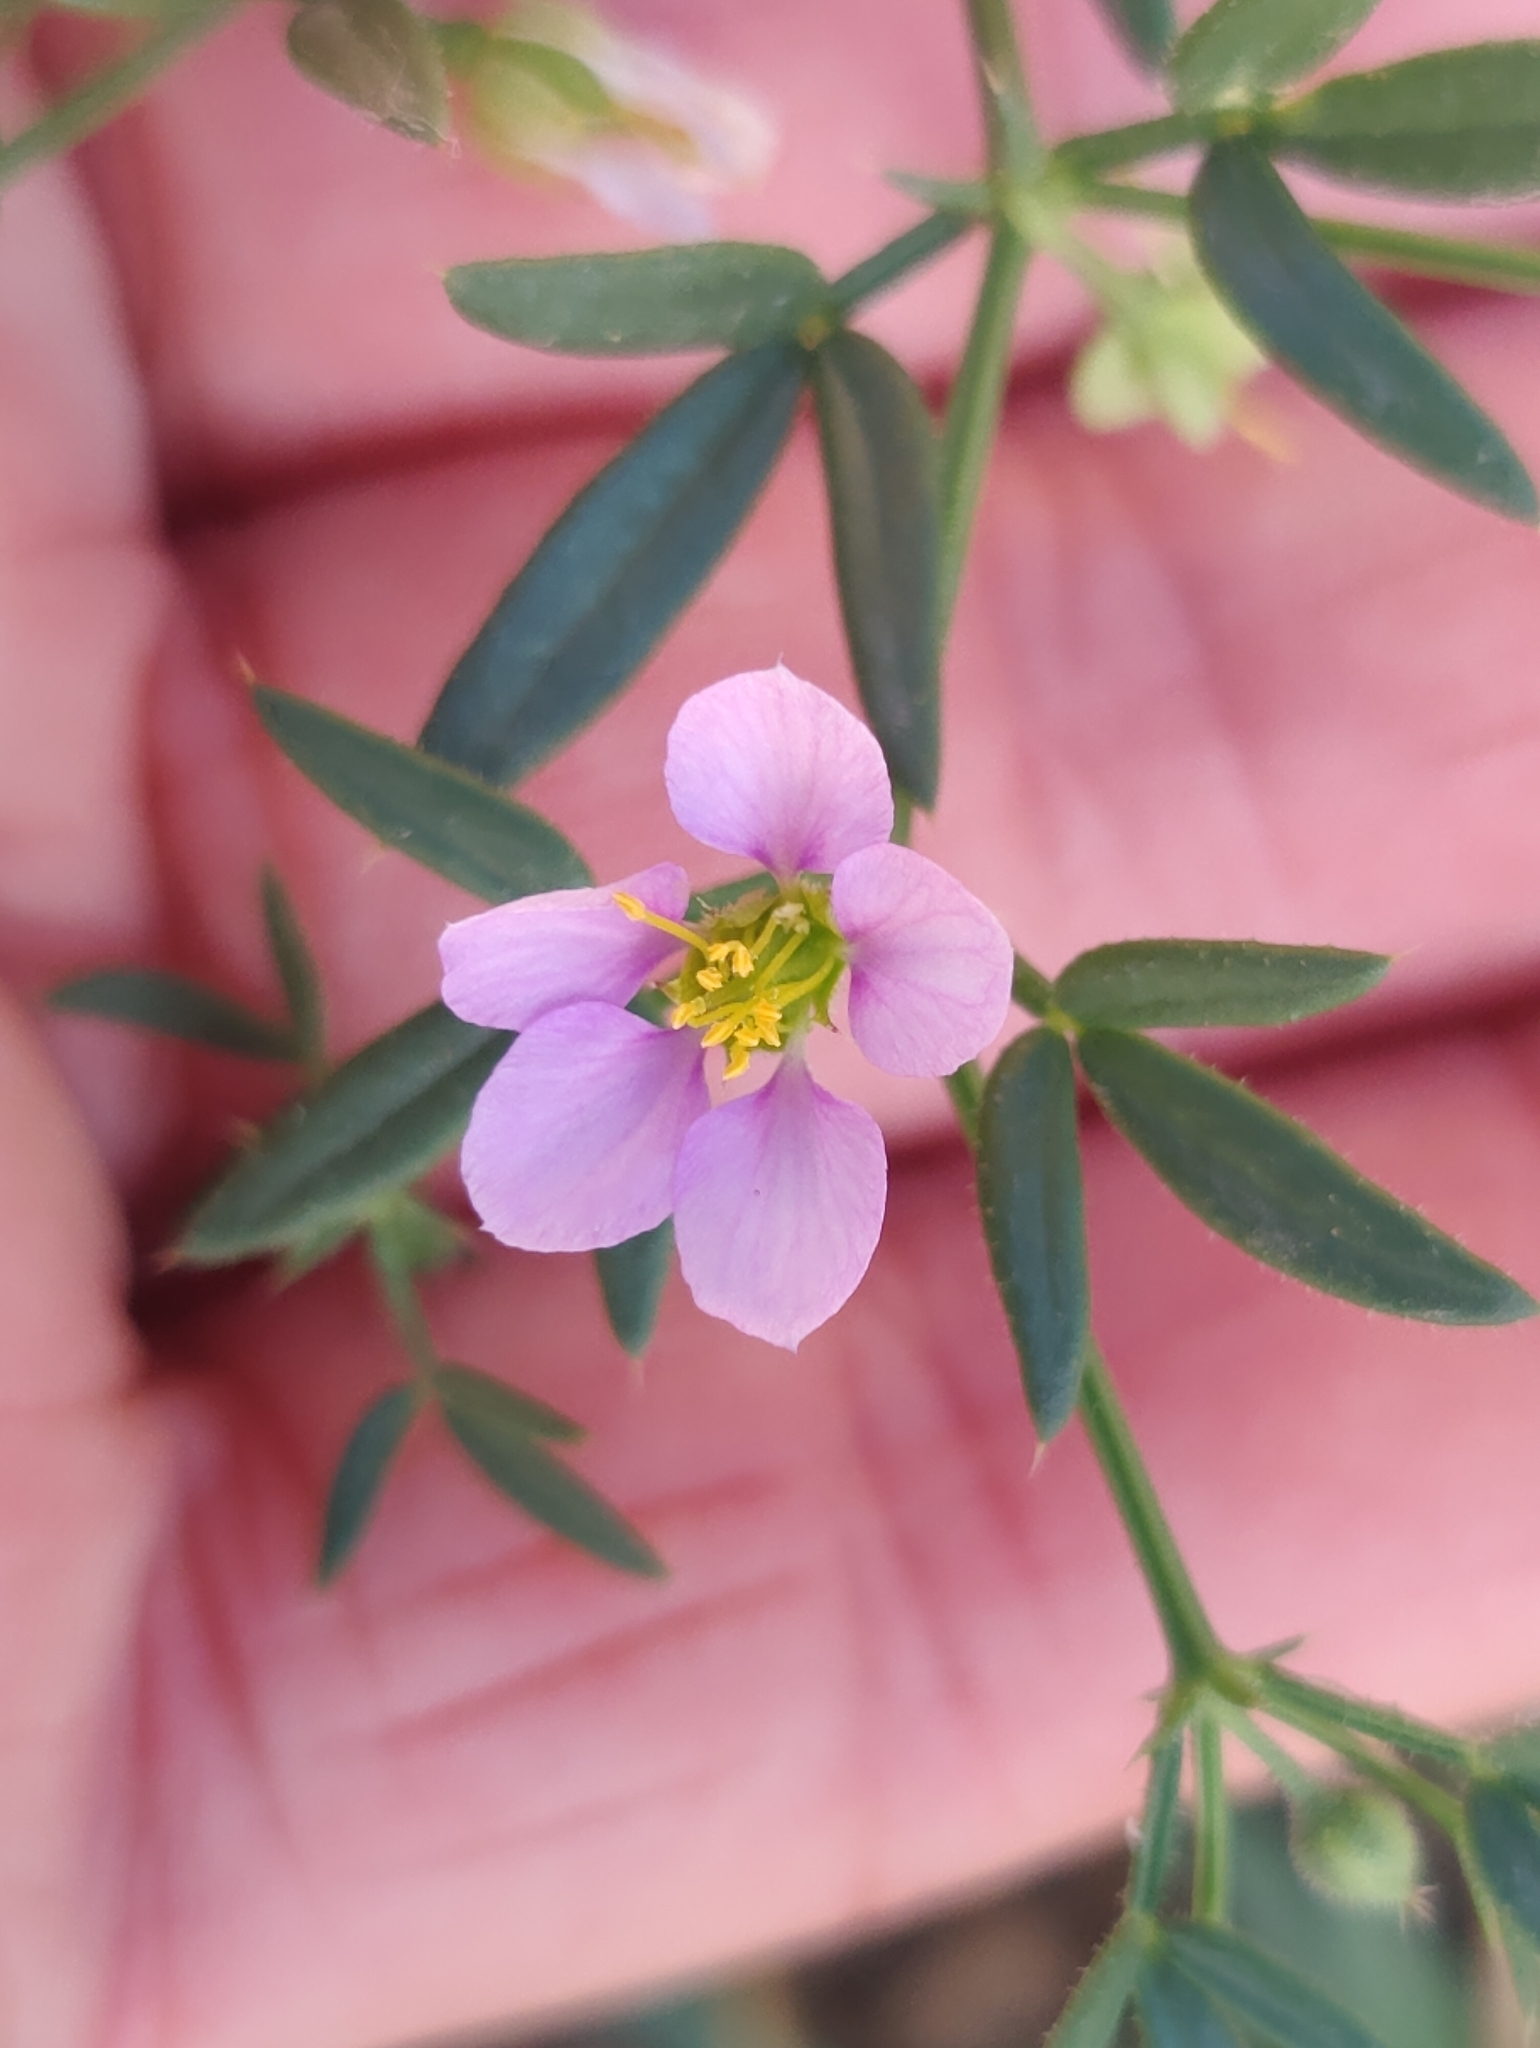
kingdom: Plantae
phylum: Tracheophyta
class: Magnoliopsida
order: Zygophyllales
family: Zygophyllaceae
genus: Fagonia
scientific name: Fagonia cretica
